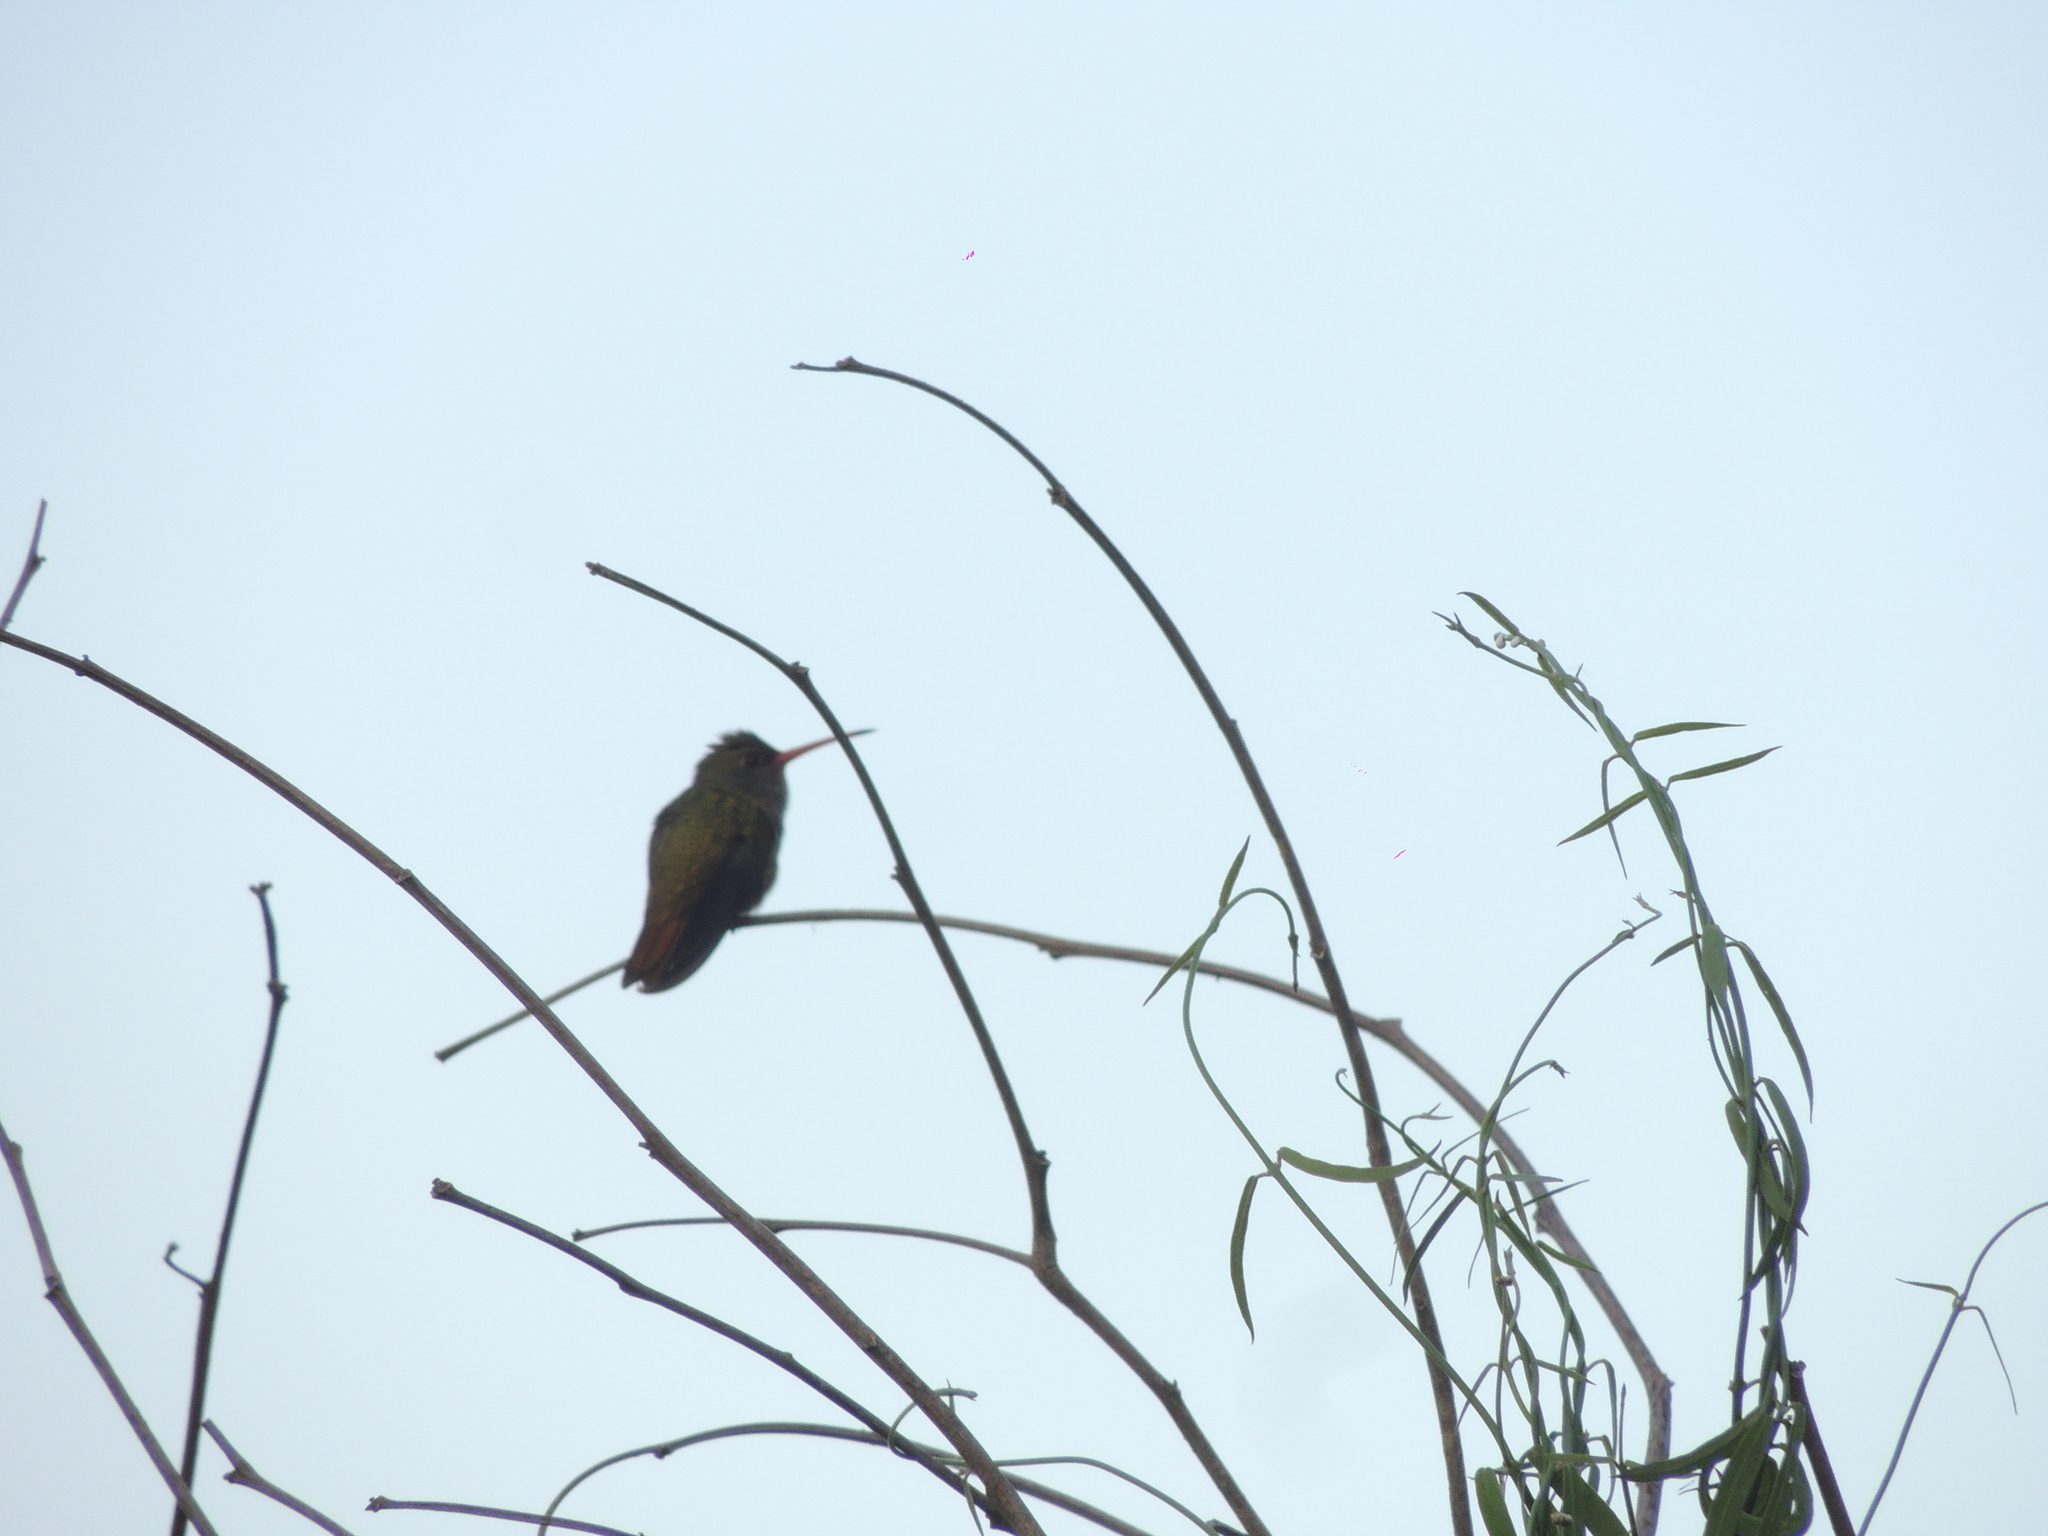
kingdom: Animalia
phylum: Chordata
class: Aves
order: Apodiformes
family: Trochilidae
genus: Hylocharis
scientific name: Hylocharis chrysura
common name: Gilded sapphire
